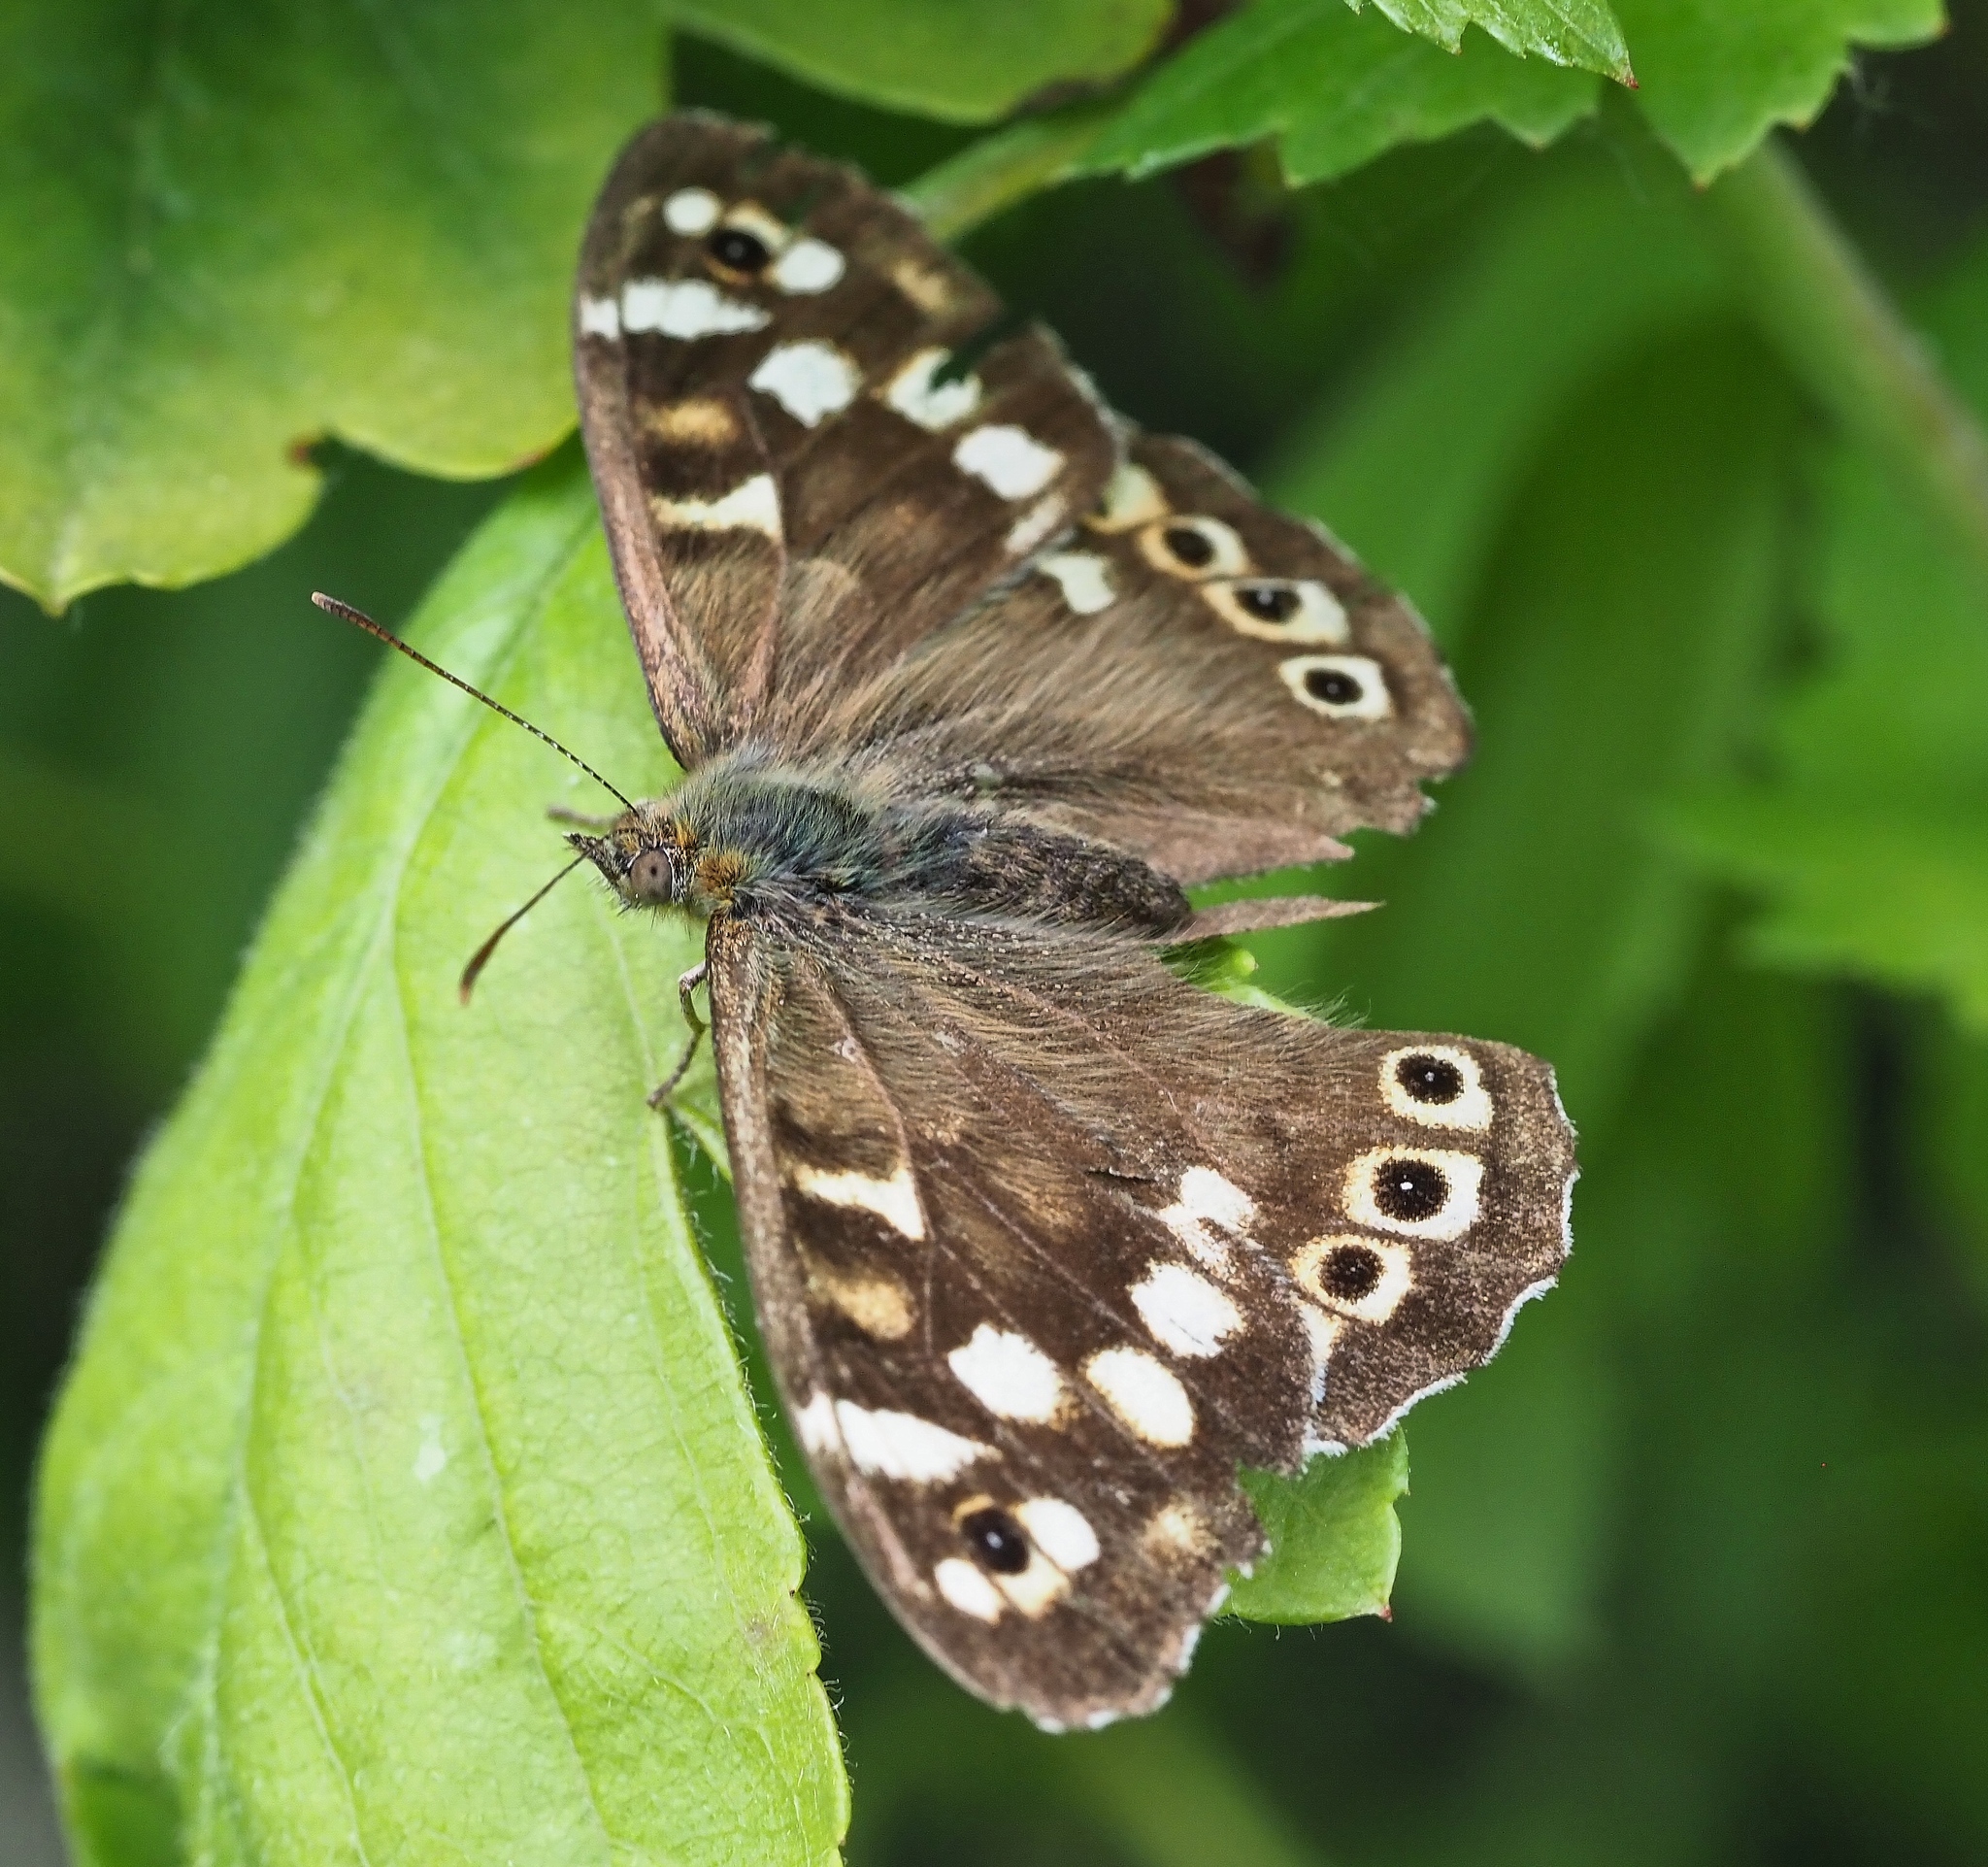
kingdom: Animalia
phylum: Arthropoda
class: Insecta
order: Lepidoptera
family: Nymphalidae
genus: Pararge
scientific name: Pararge aegeria
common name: Speckled wood
